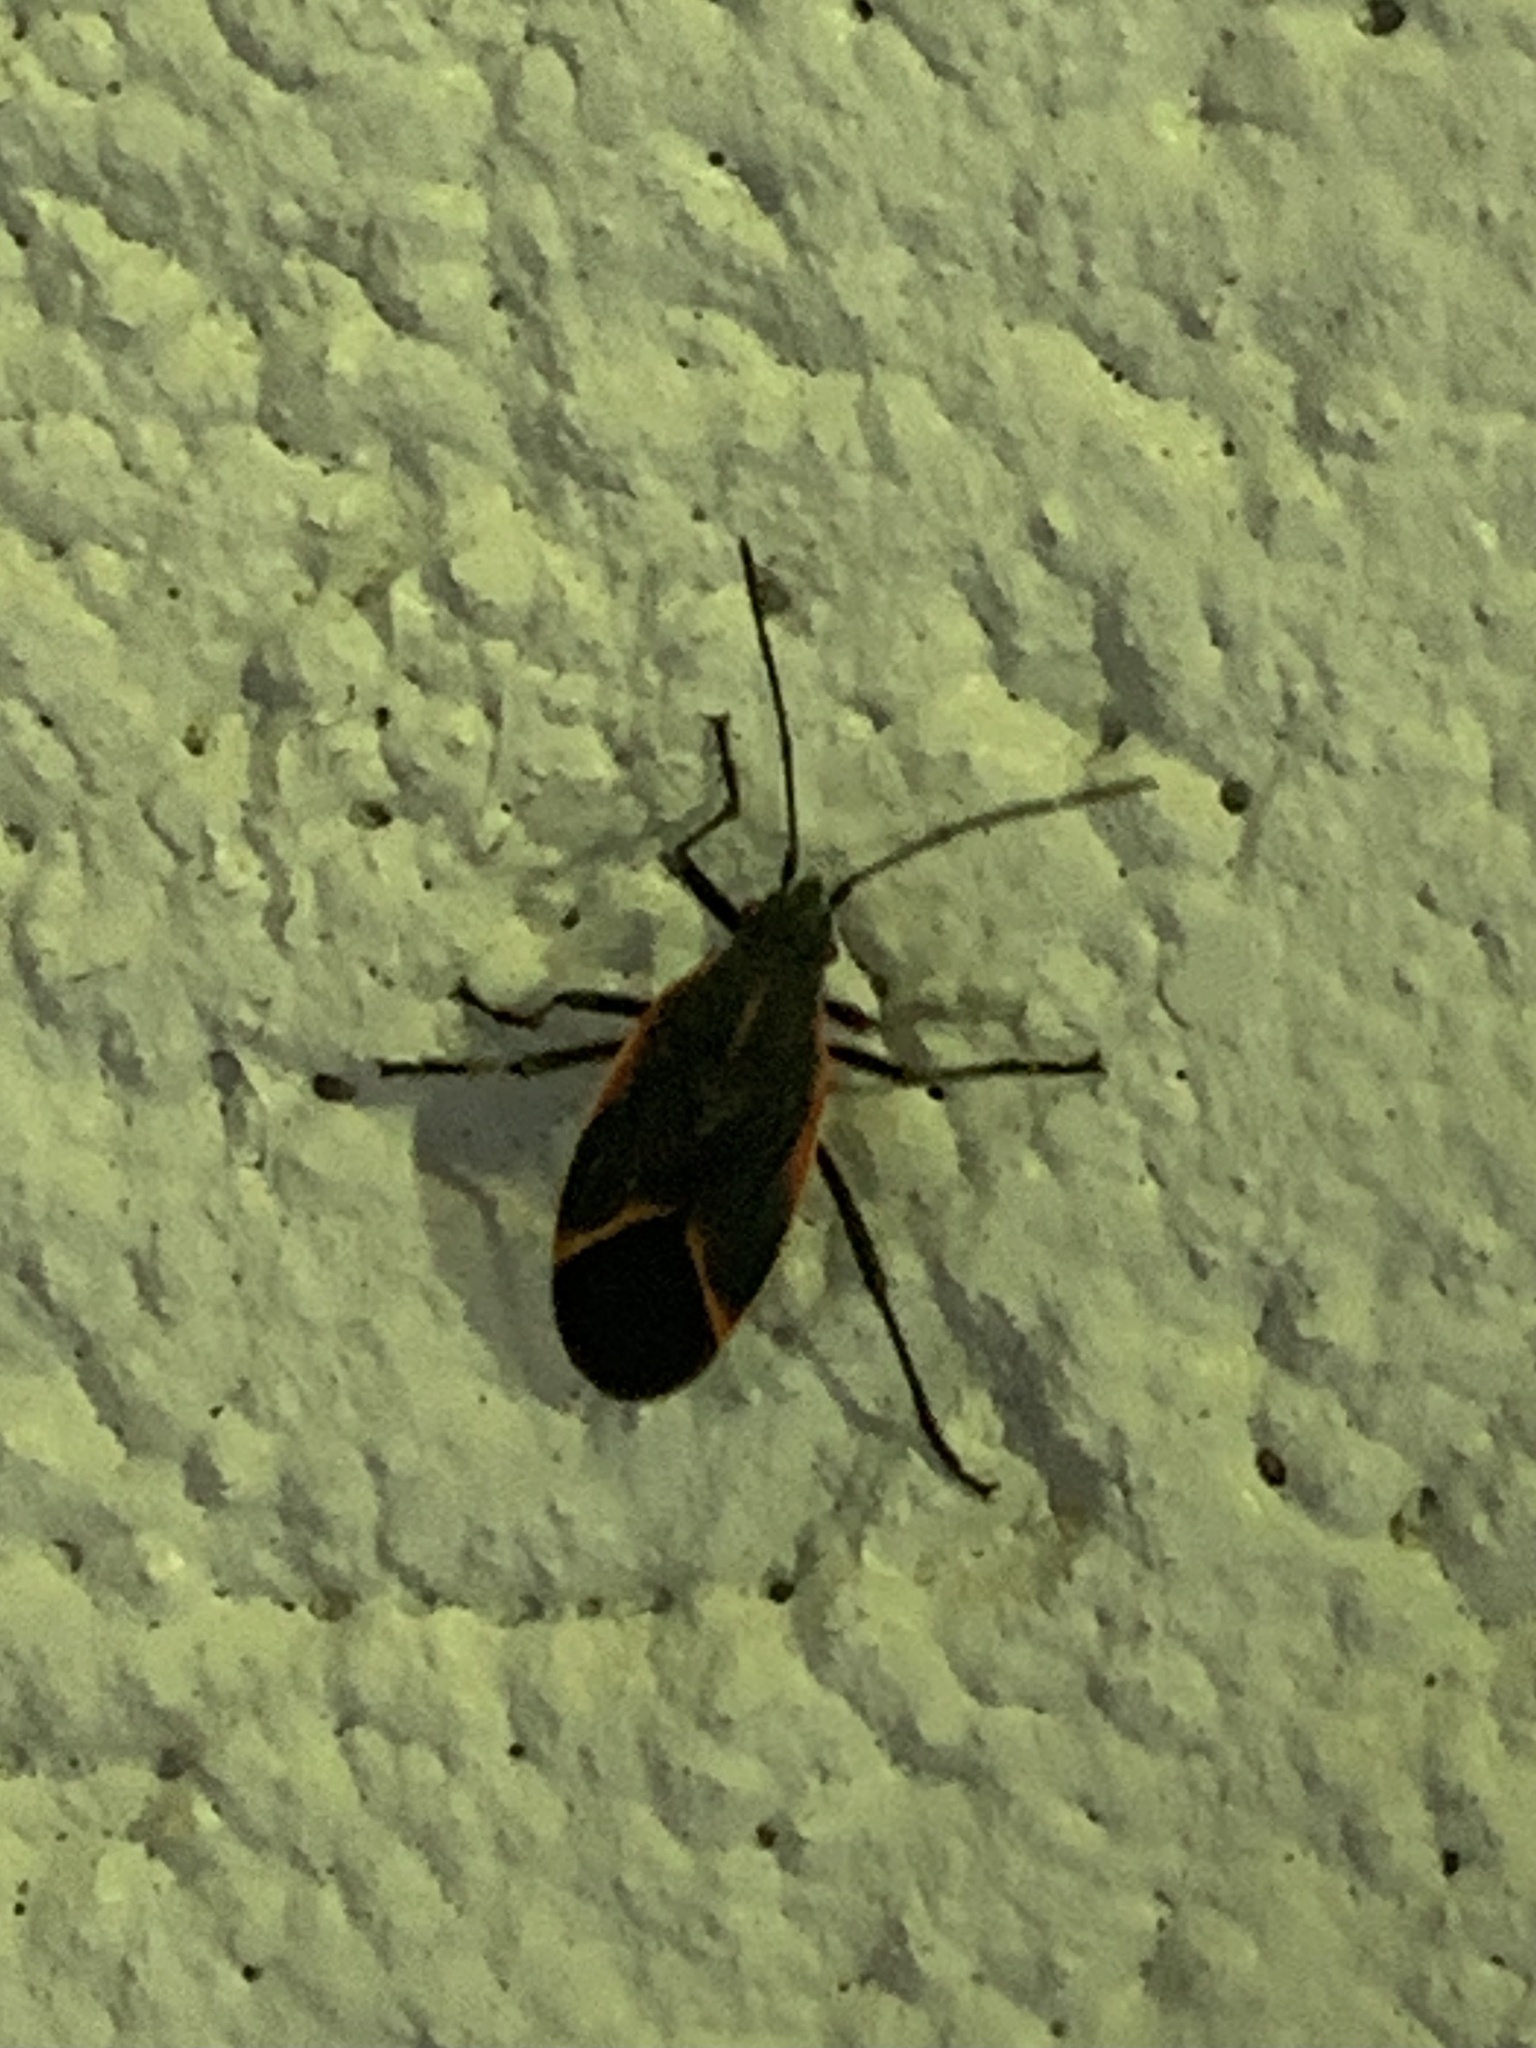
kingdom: Animalia
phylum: Arthropoda
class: Insecta
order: Hemiptera
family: Rhopalidae
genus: Boisea
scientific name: Boisea trivittata
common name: Boxelder bug
